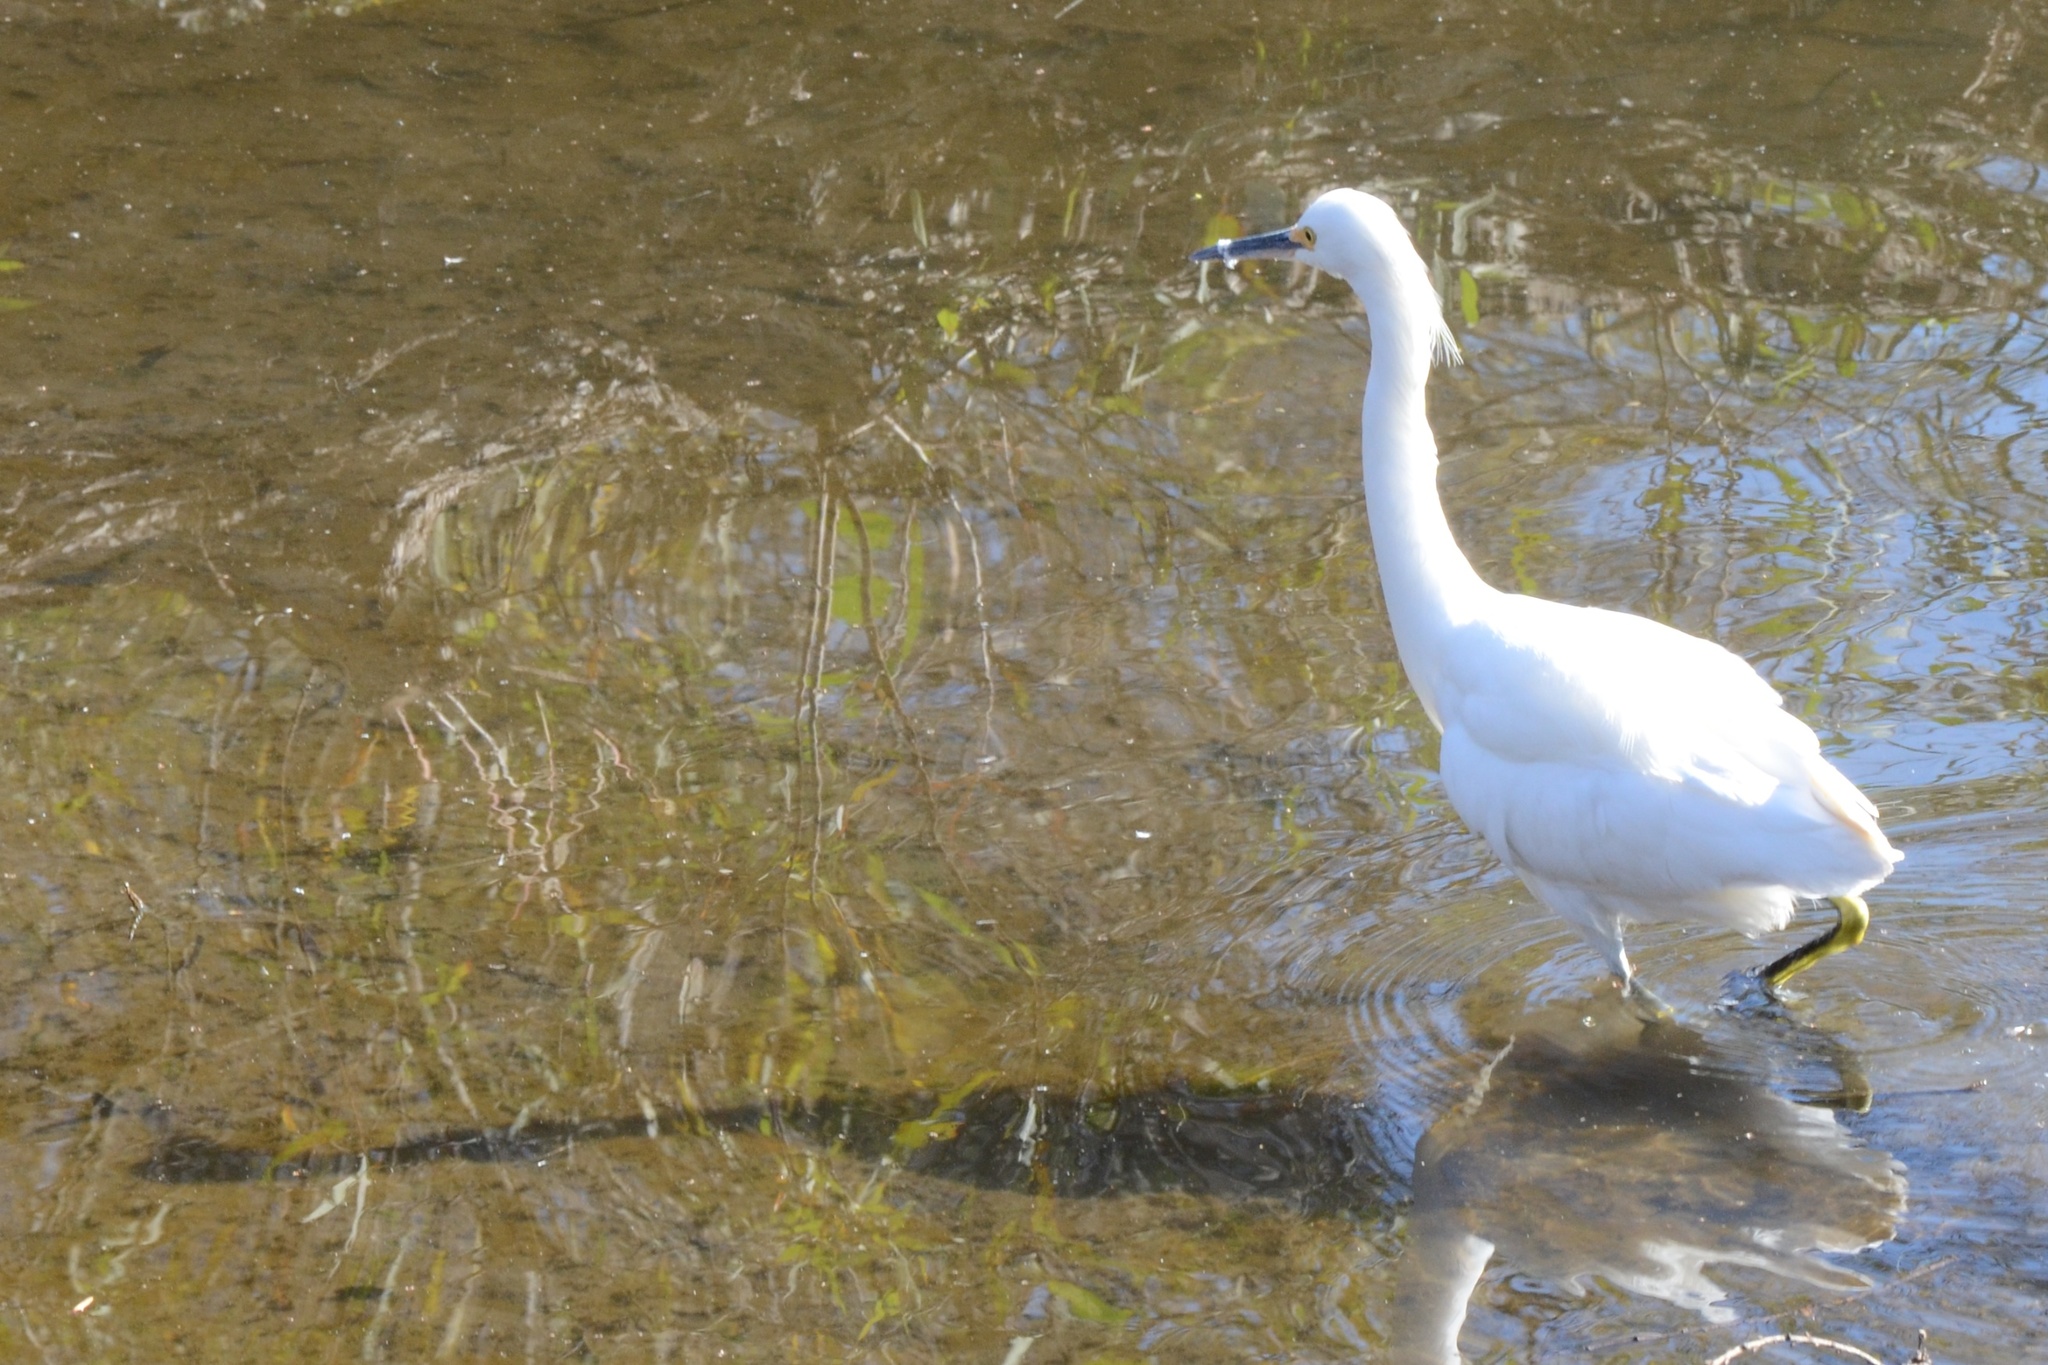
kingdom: Animalia
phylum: Chordata
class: Aves
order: Pelecaniformes
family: Ardeidae
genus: Egretta
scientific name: Egretta thula
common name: Snowy egret
